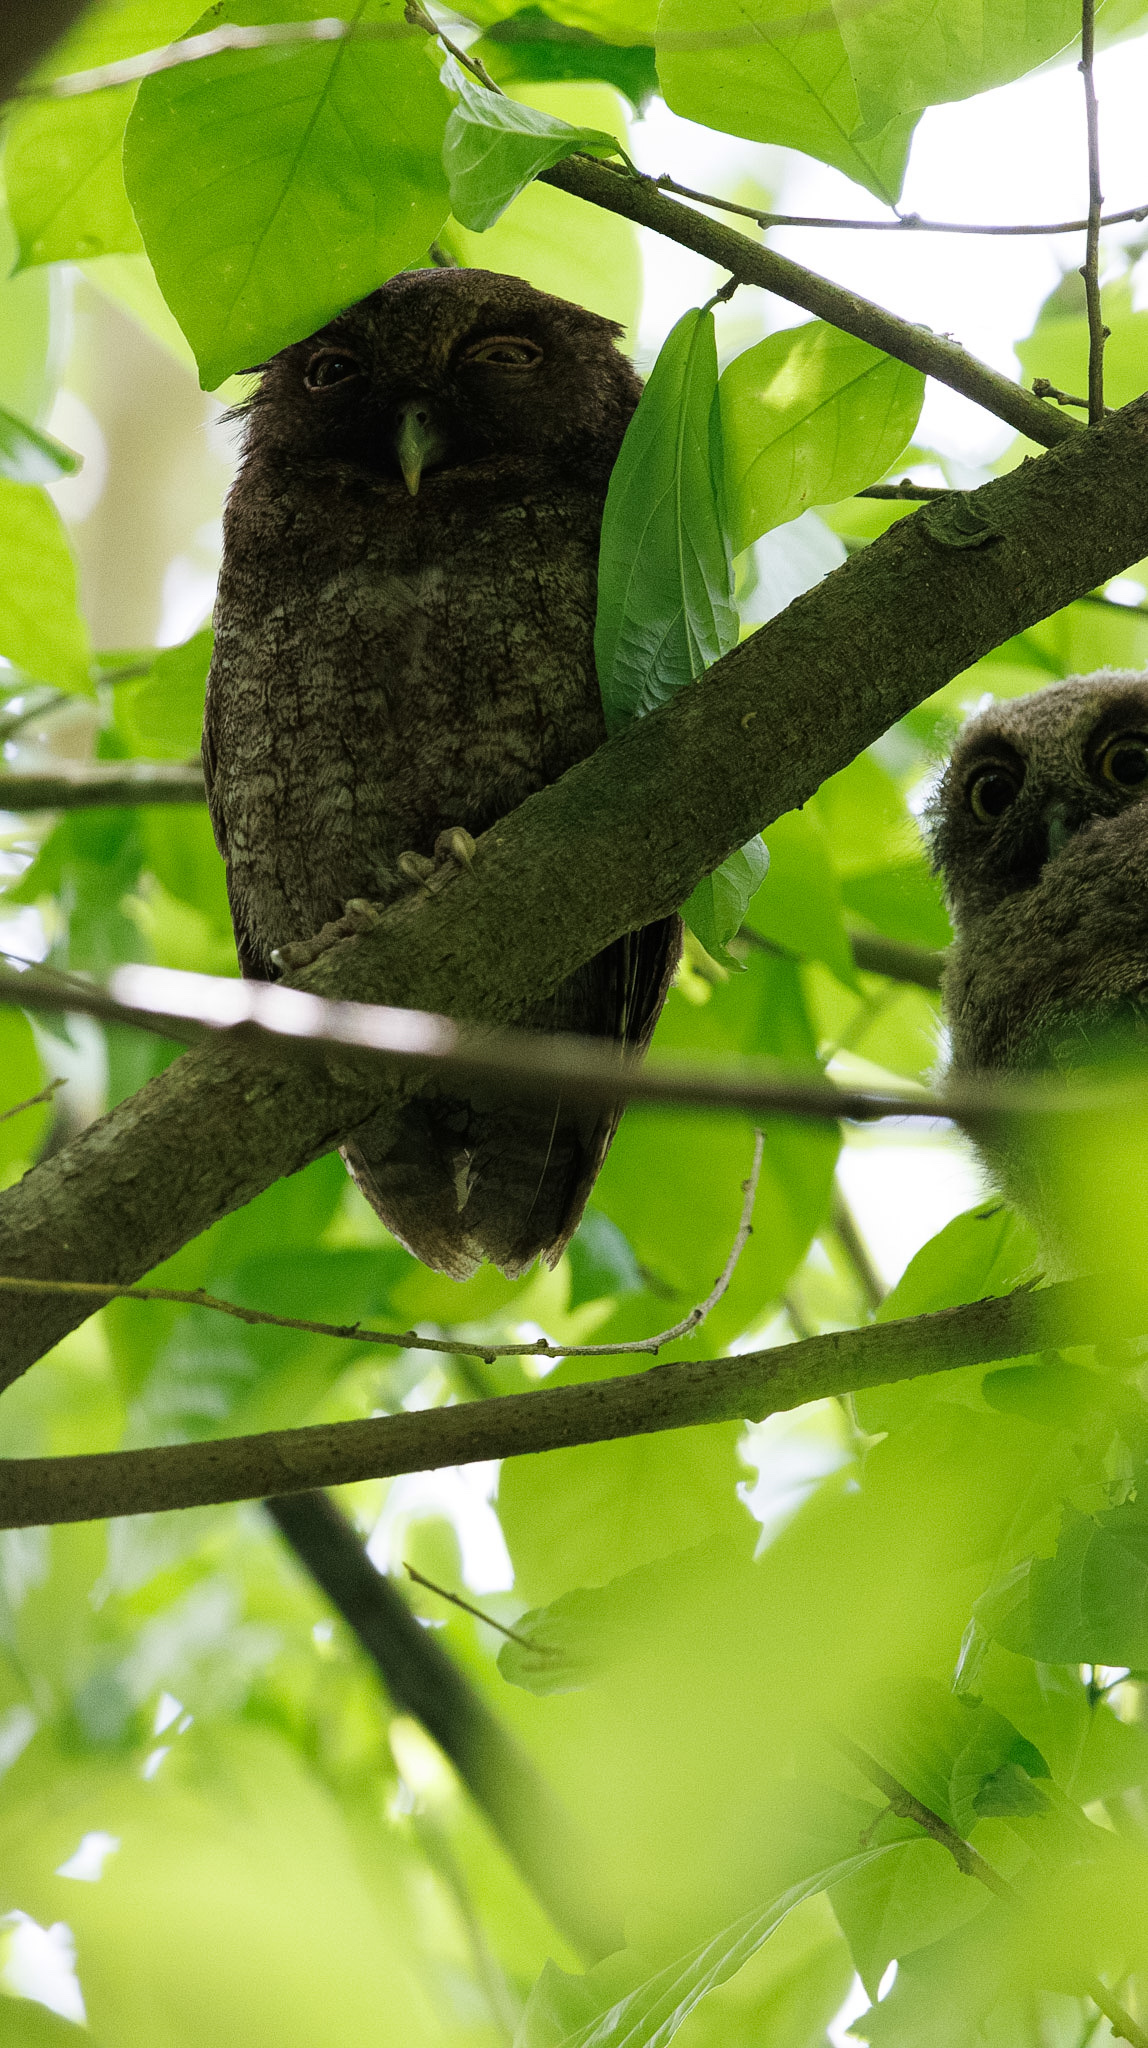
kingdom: Animalia
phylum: Chordata
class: Aves
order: Strigiformes
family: Strigidae
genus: Megascops
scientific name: Megascops centralis
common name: Choco screech owl
